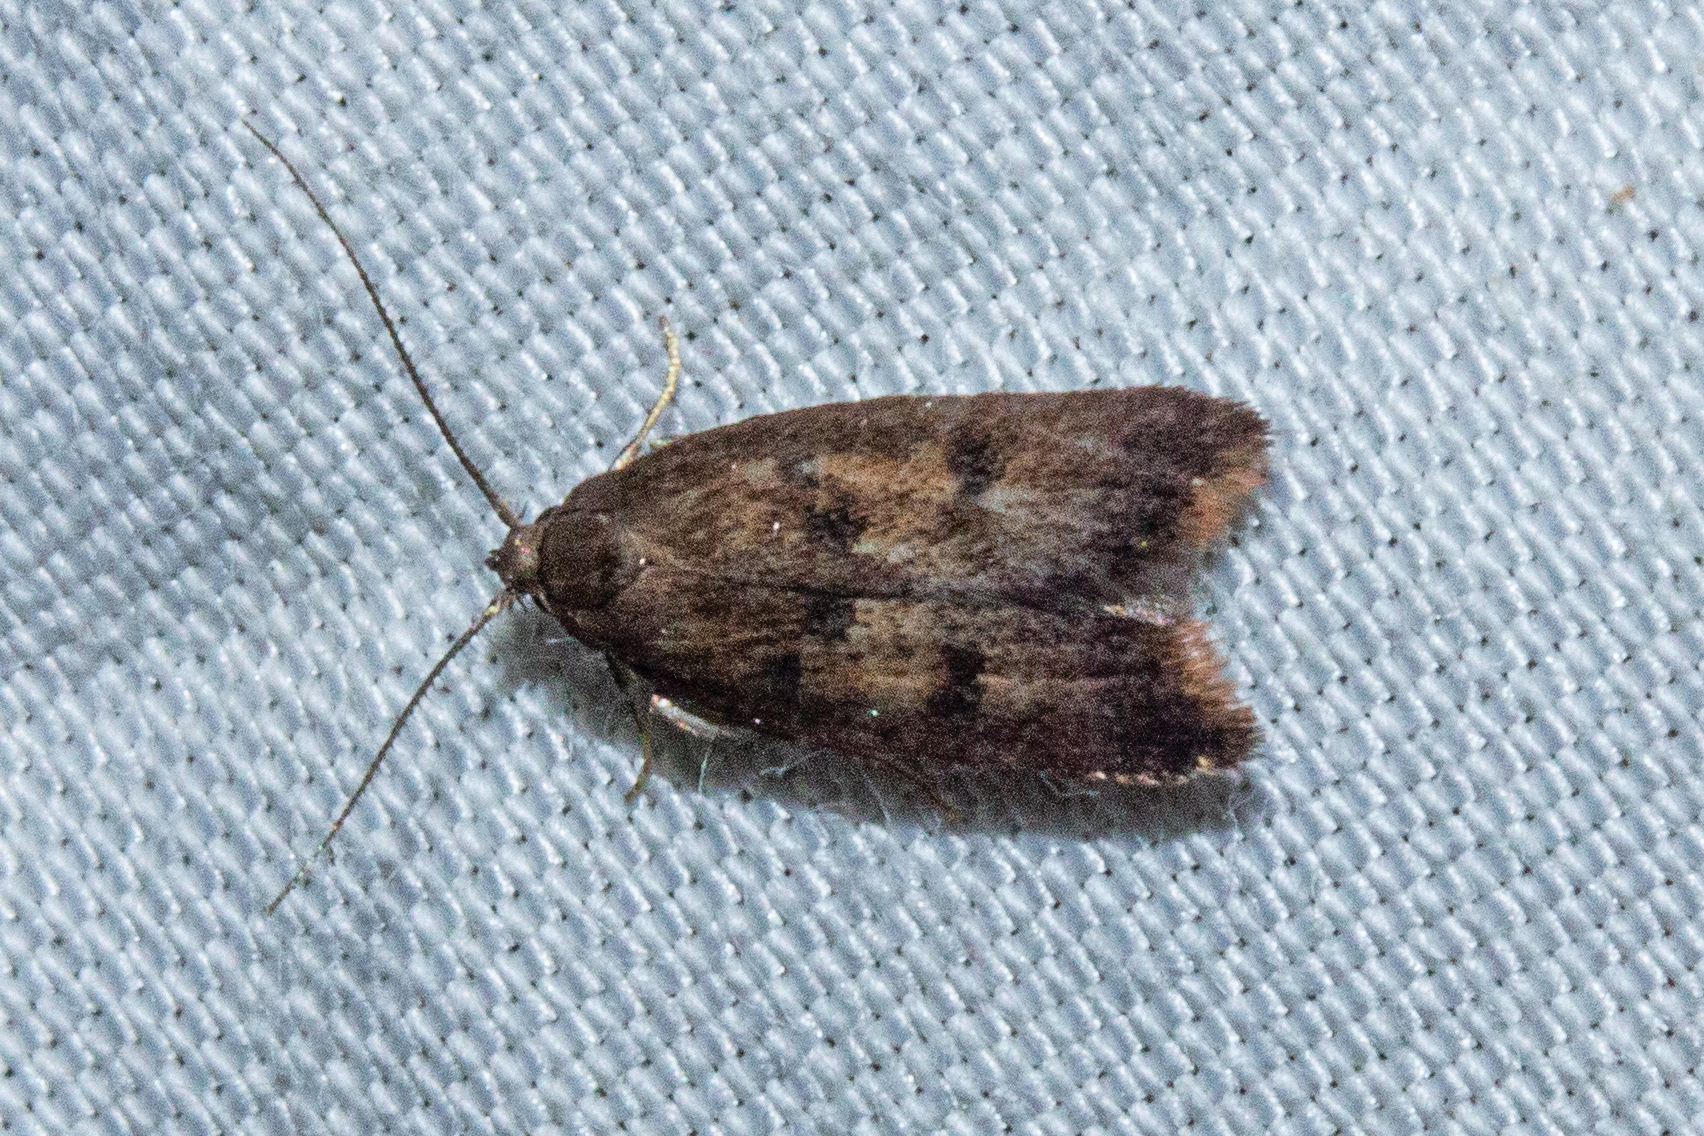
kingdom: Animalia
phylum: Arthropoda
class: Insecta
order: Lepidoptera
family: Oecophoridae
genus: Tachystola
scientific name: Tachystola acroxantha
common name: Ruddy streak
